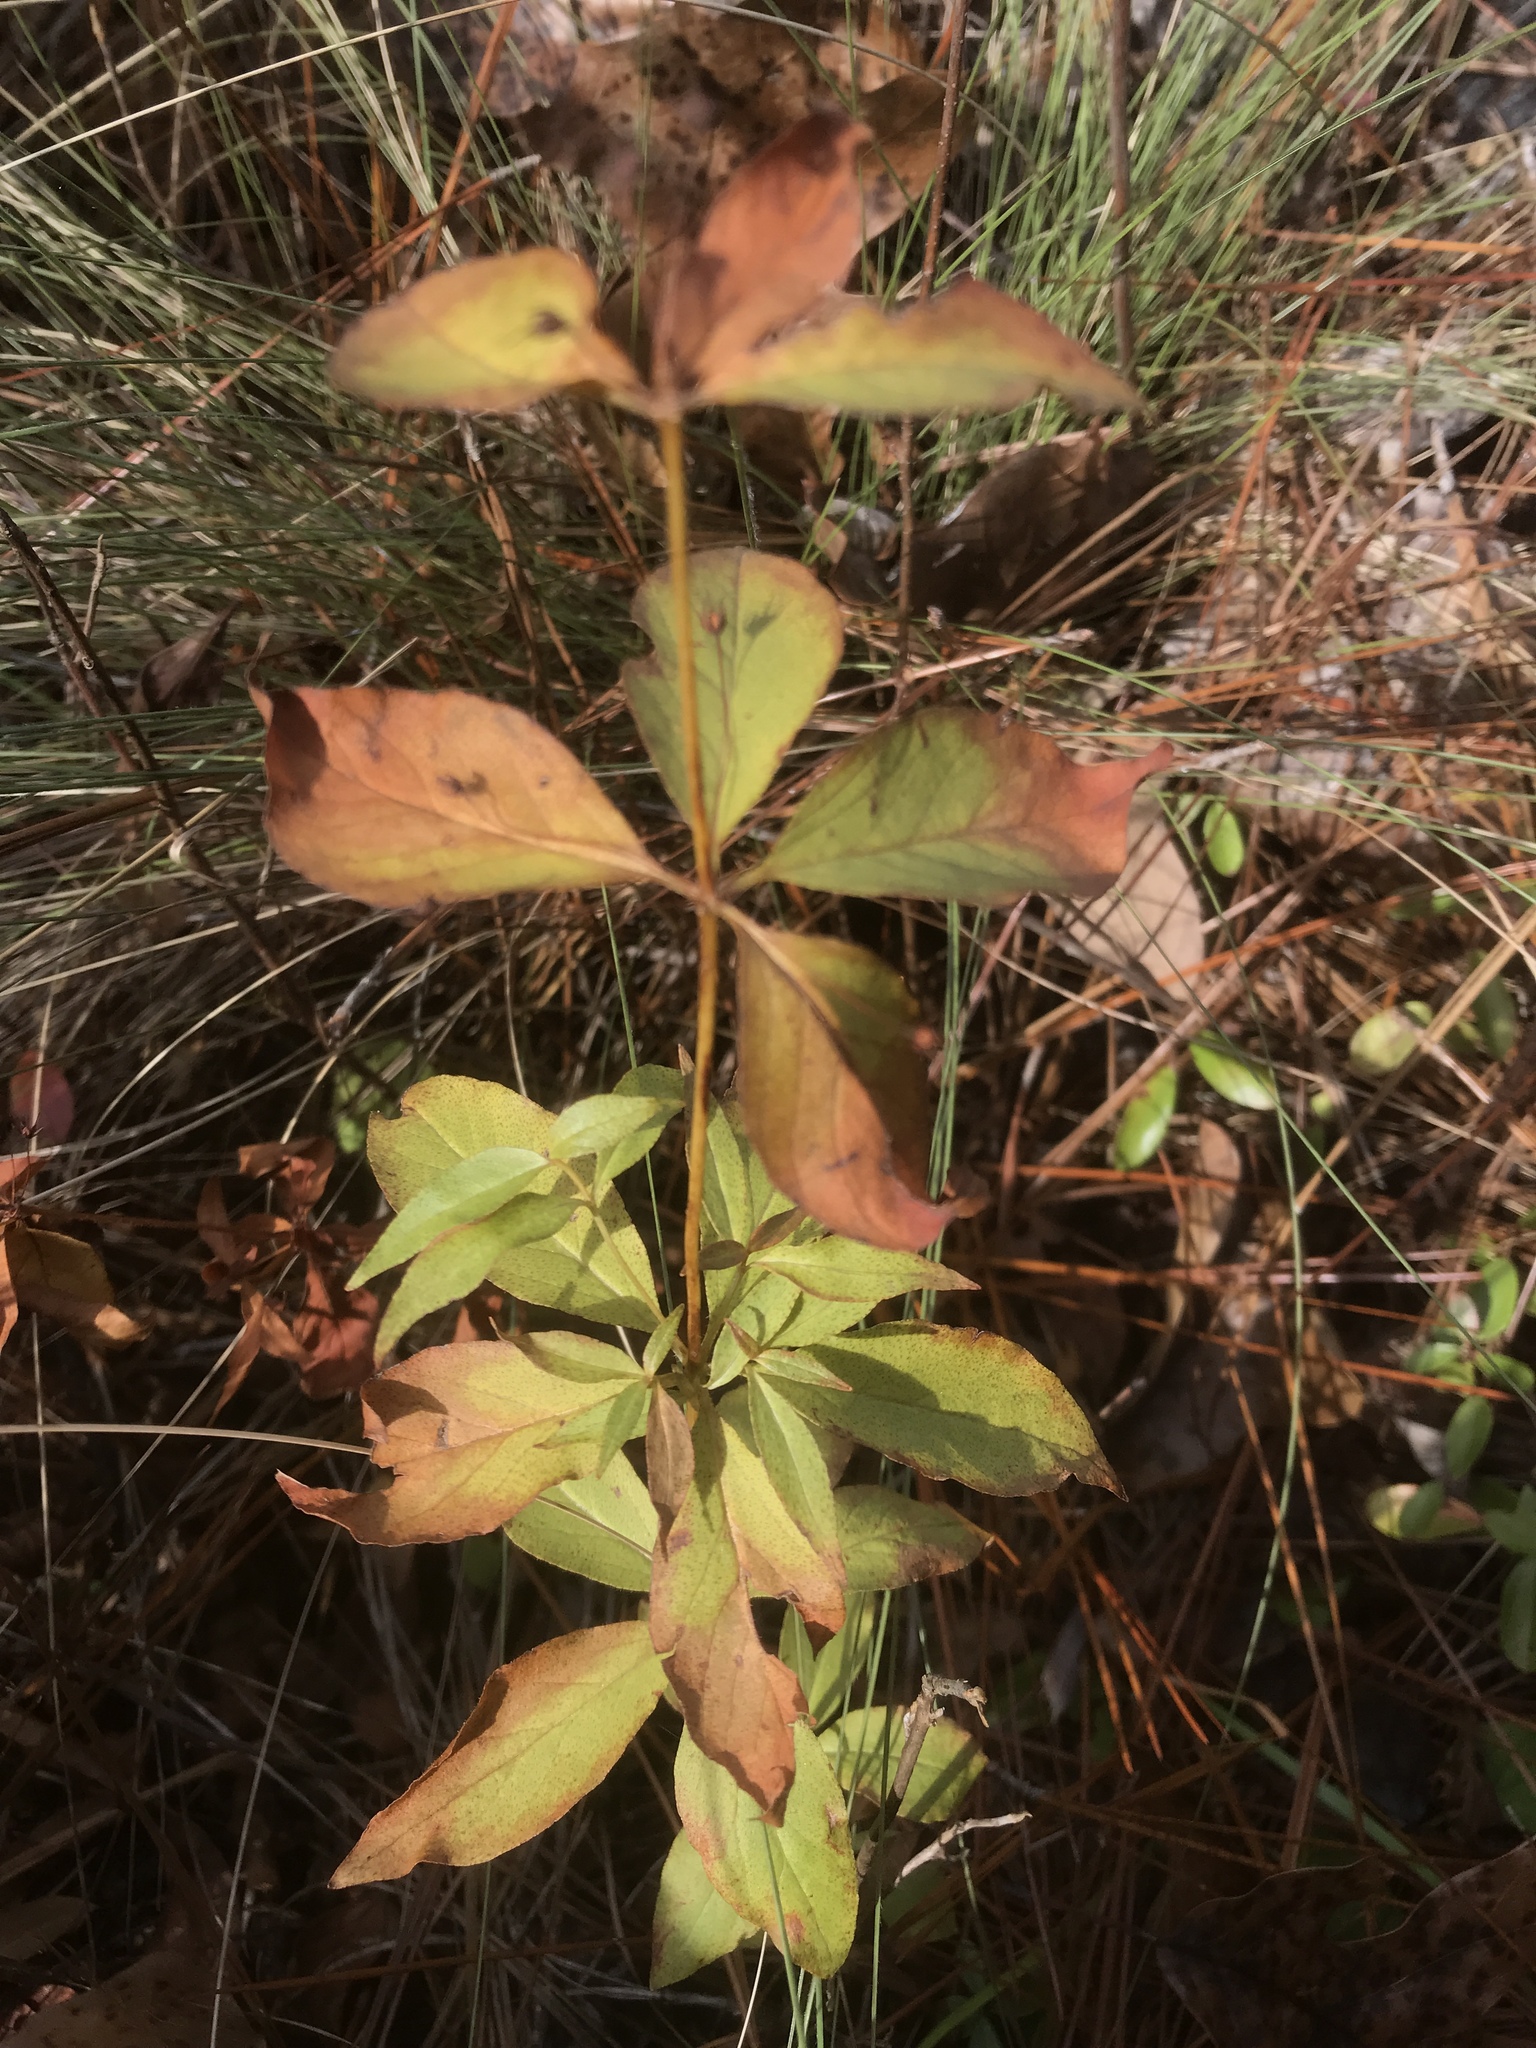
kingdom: Plantae
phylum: Tracheophyta
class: Magnoliopsida
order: Ericales
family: Primulaceae
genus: Lysimachia
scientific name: Lysimachia quadrifolia
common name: Whorled loosestrife
